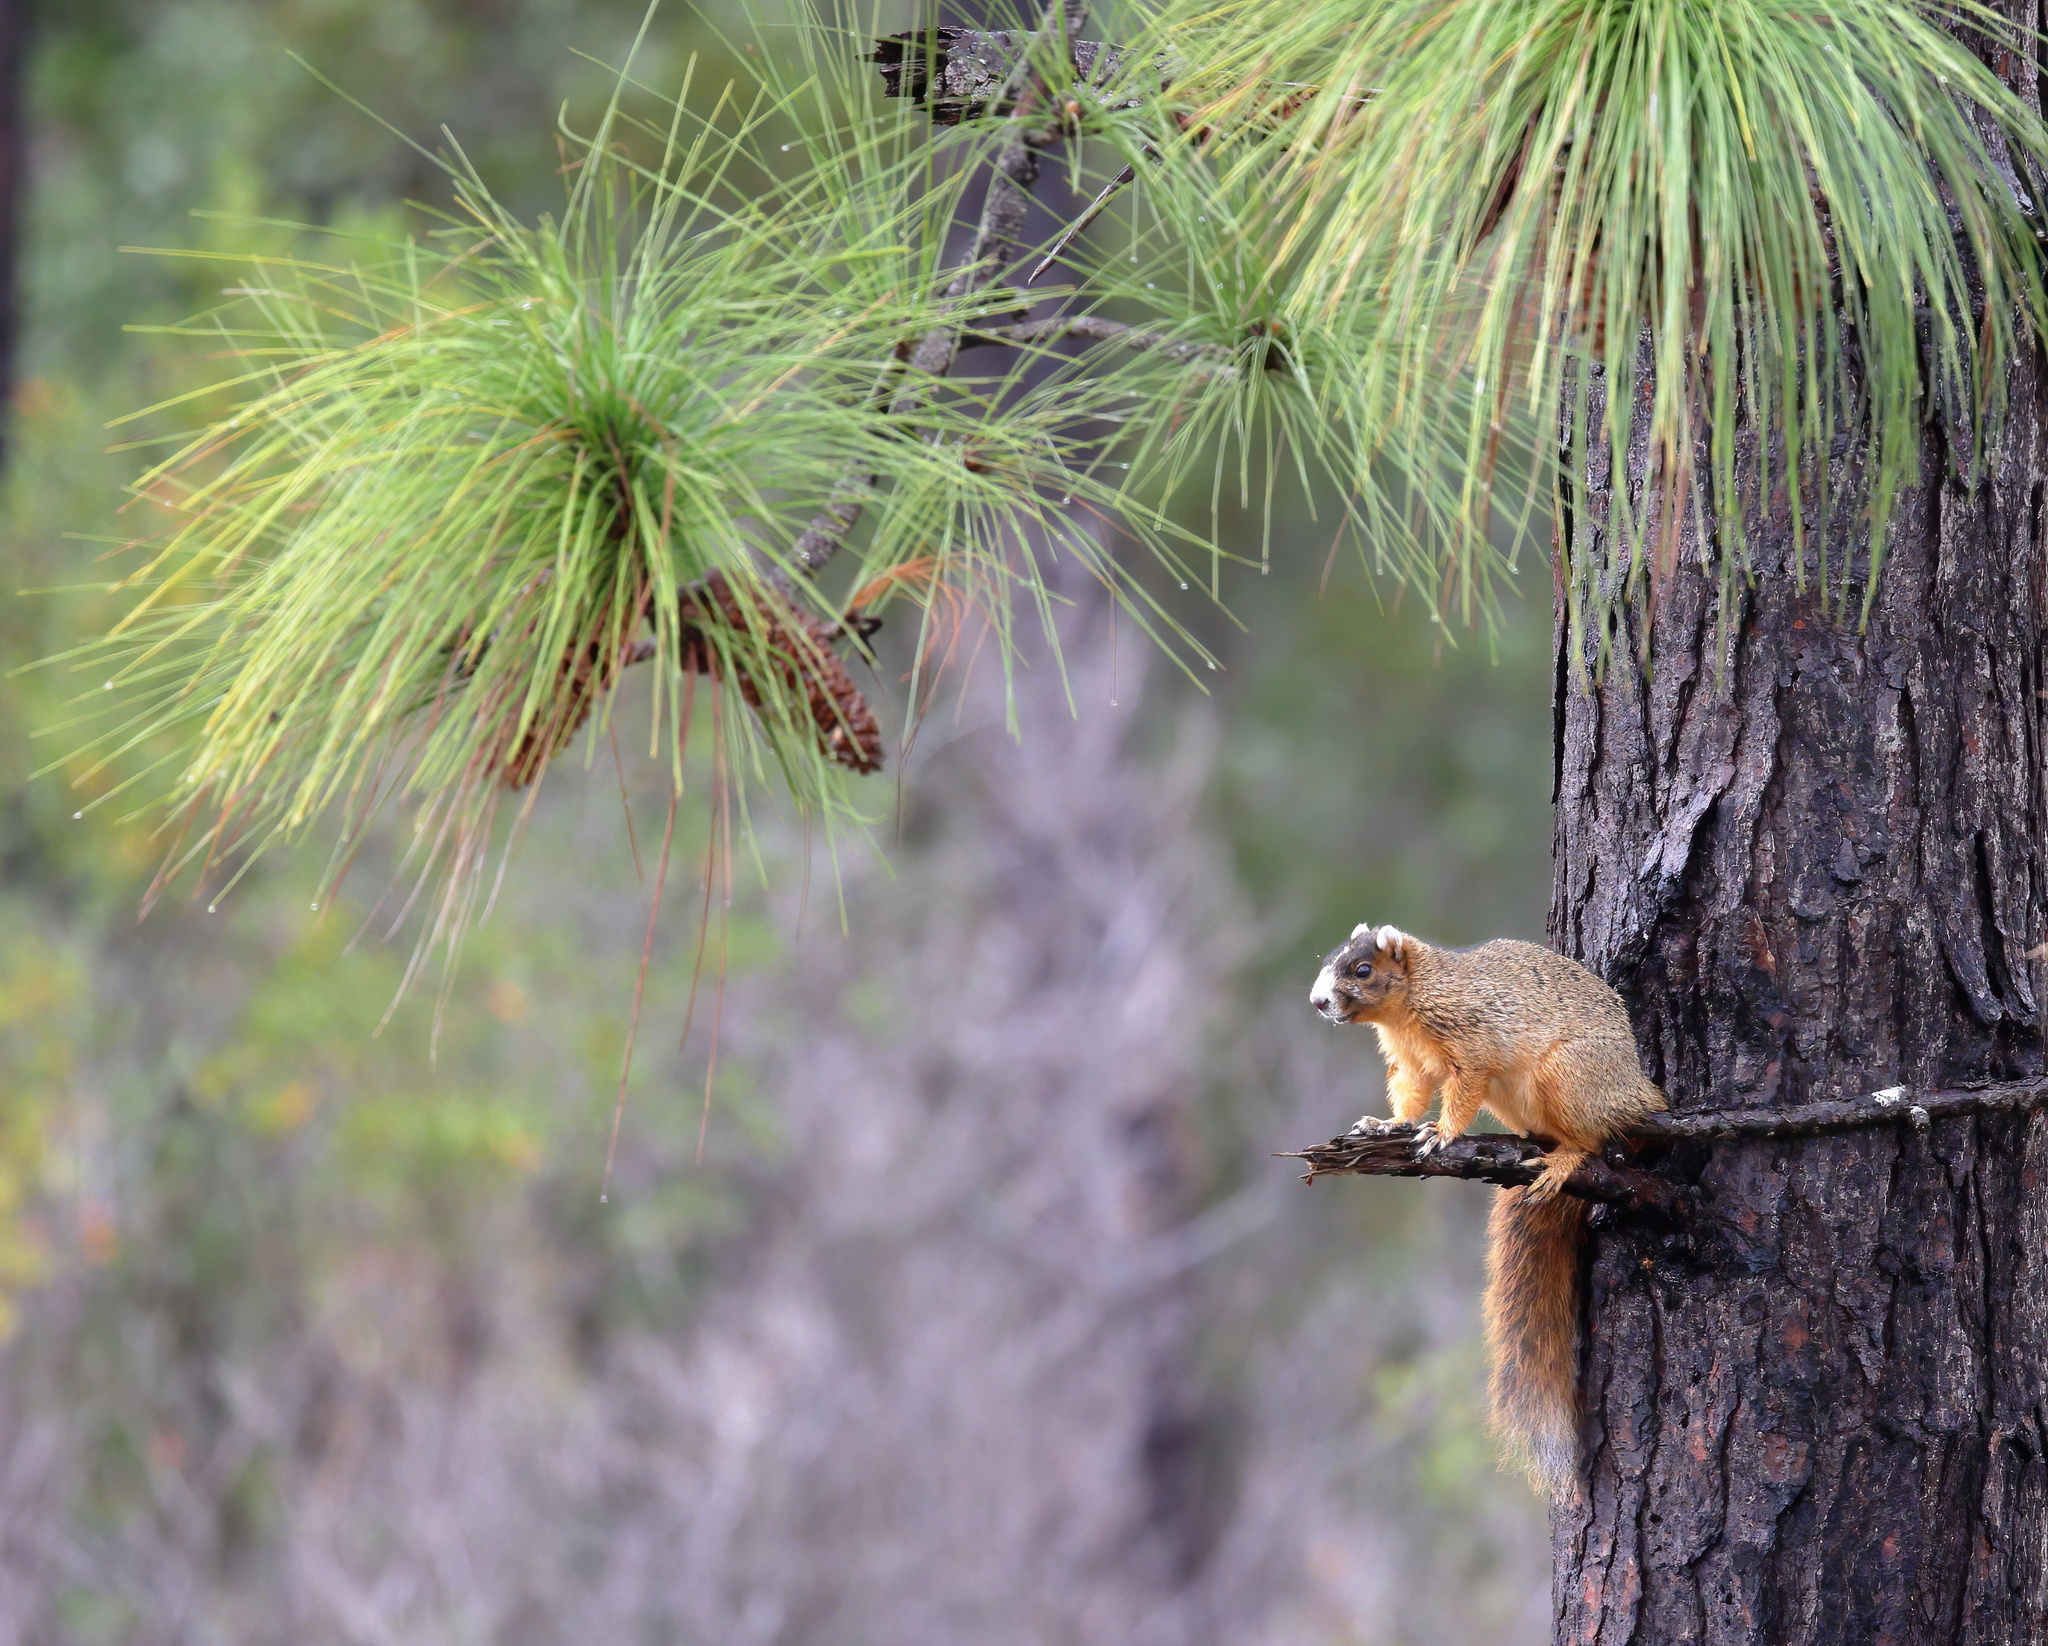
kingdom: Animalia
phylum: Chordata
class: Mammalia
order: Rodentia
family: Sciuridae
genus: Sciurus
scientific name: Sciurus niger
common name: Fox squirrel
